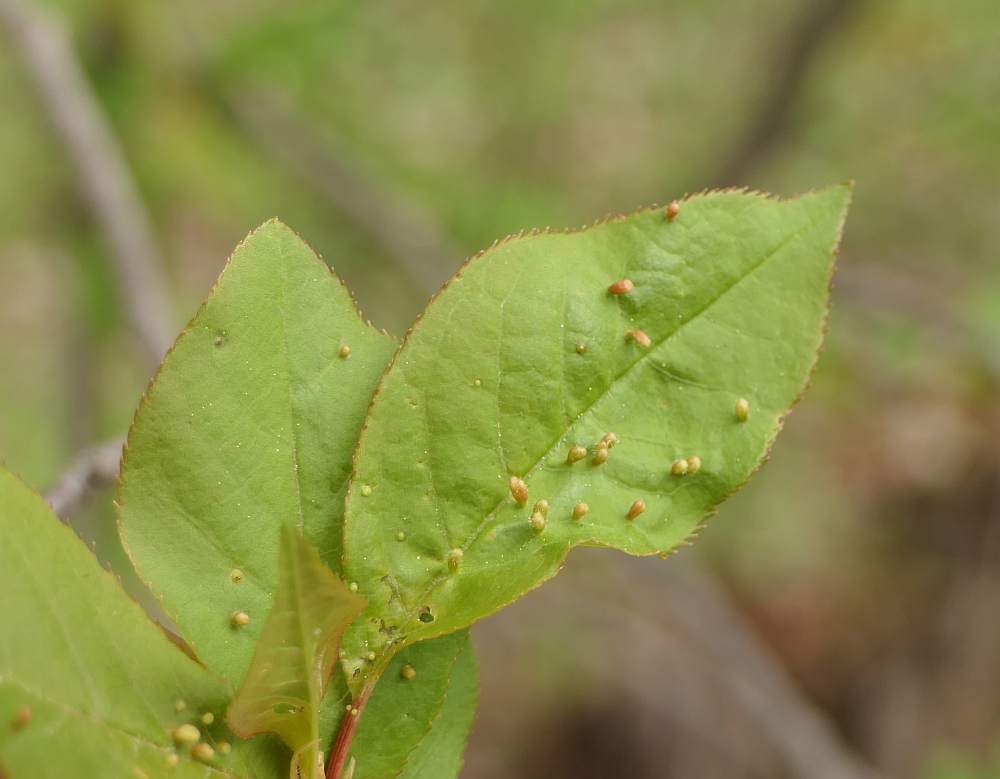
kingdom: Animalia
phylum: Arthropoda
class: Arachnida
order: Trombidiformes
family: Eriophyidae
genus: Eriophyes
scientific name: Eriophyes emarginatae
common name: Plum leaf gall mite
